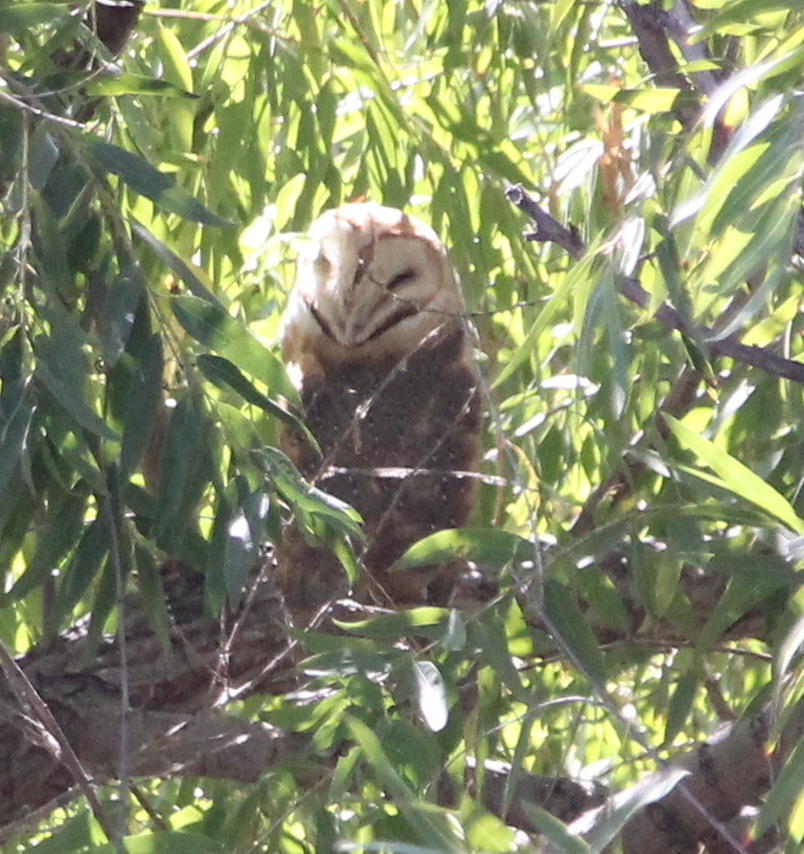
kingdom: Animalia
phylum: Chordata
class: Aves
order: Strigiformes
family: Tytonidae
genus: Tyto
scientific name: Tyto alba
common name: Barn owl
